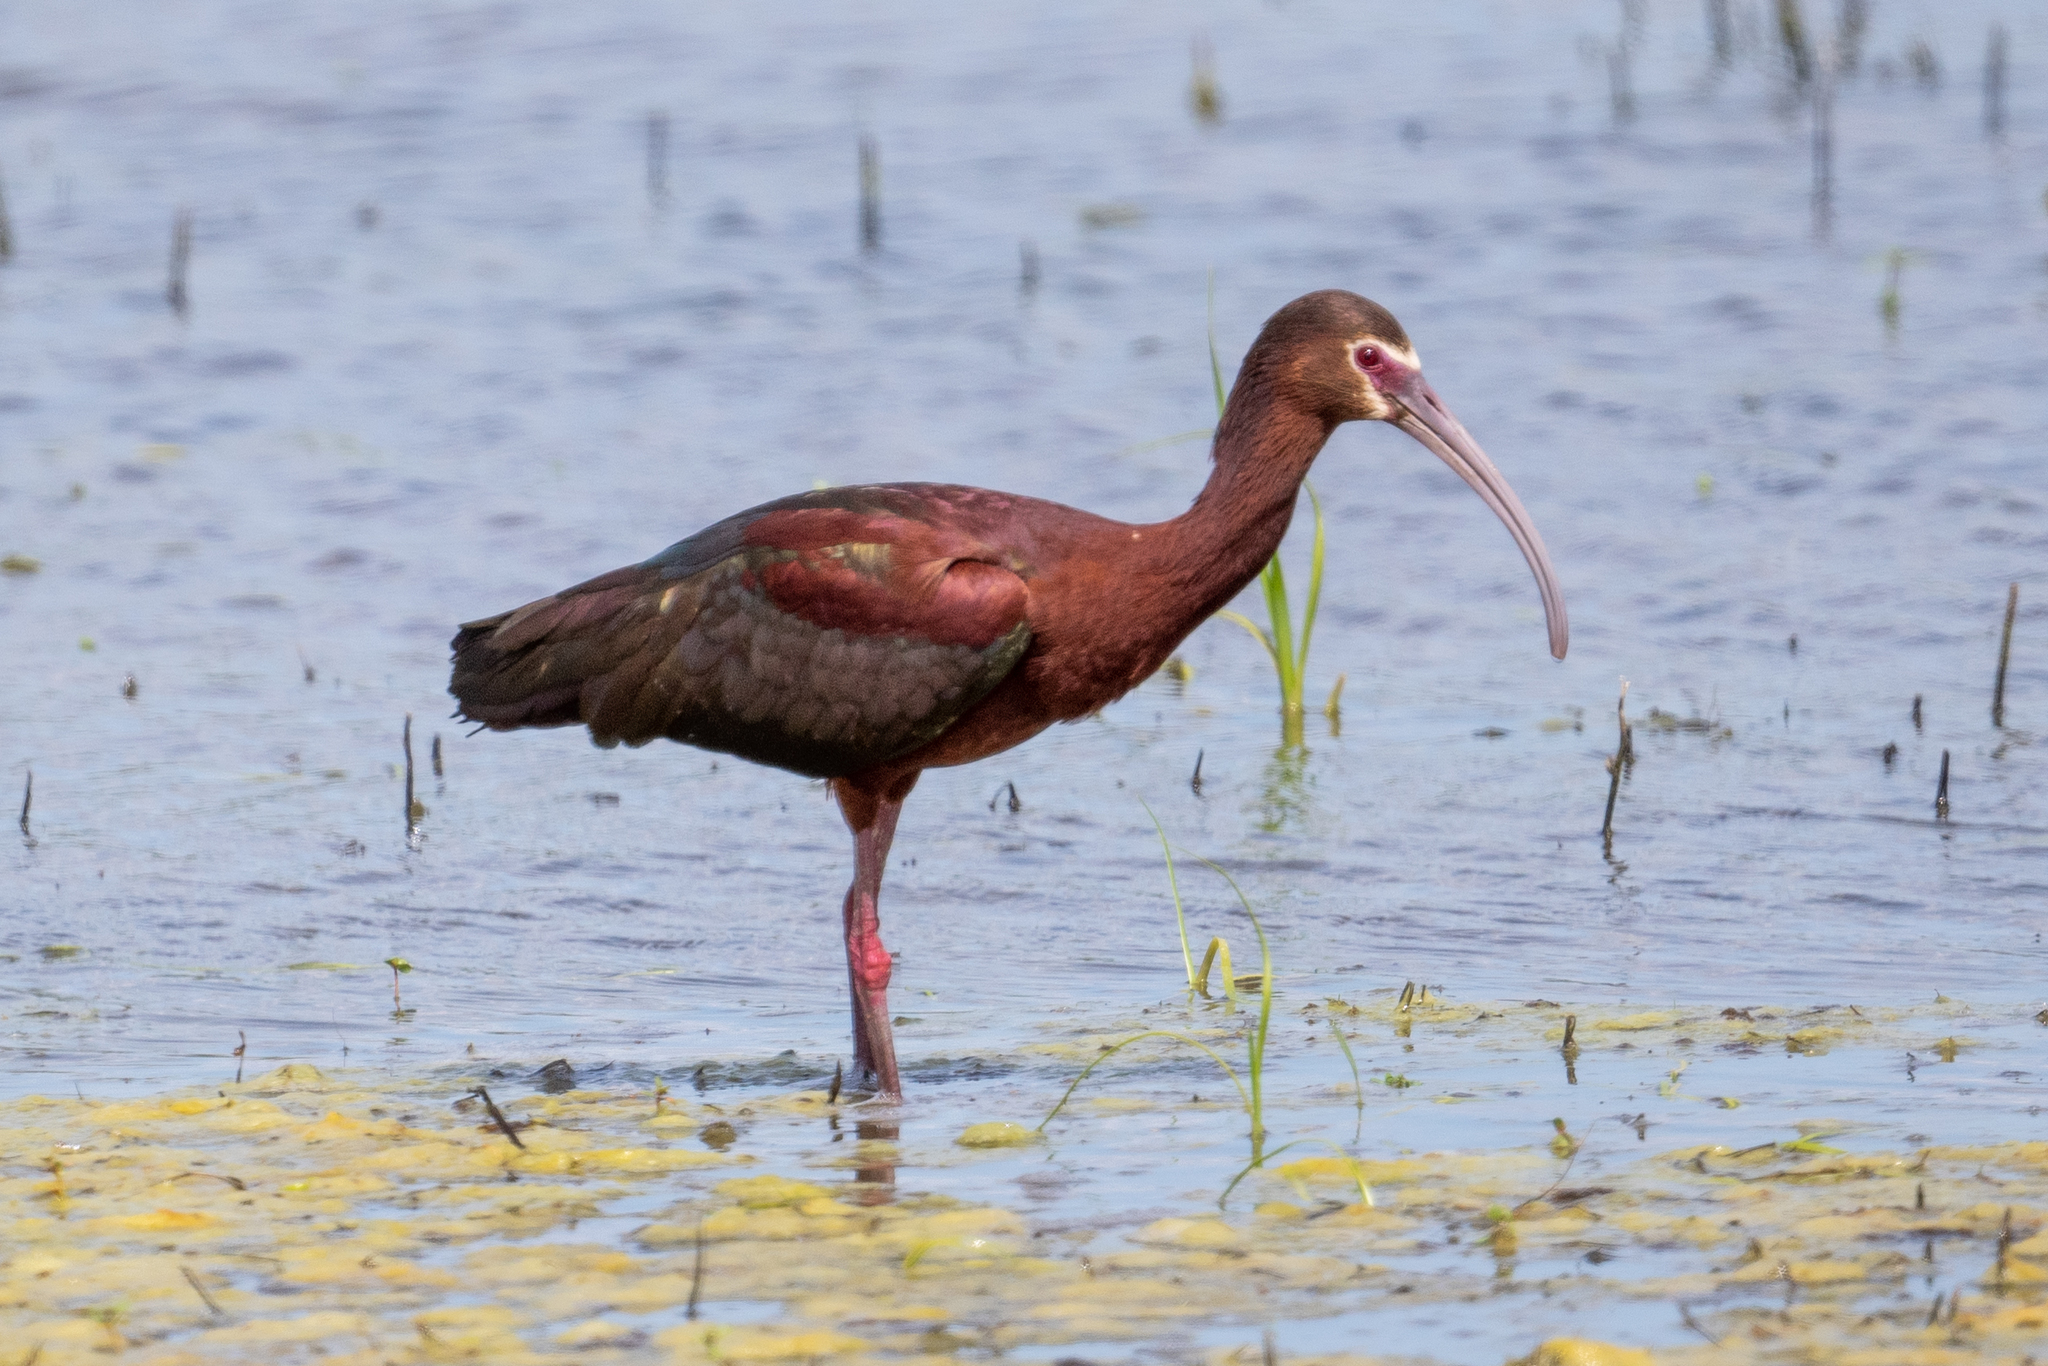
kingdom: Animalia
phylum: Chordata
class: Aves
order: Pelecaniformes
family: Threskiornithidae
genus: Plegadis
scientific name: Plegadis chihi
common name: White-faced ibis
